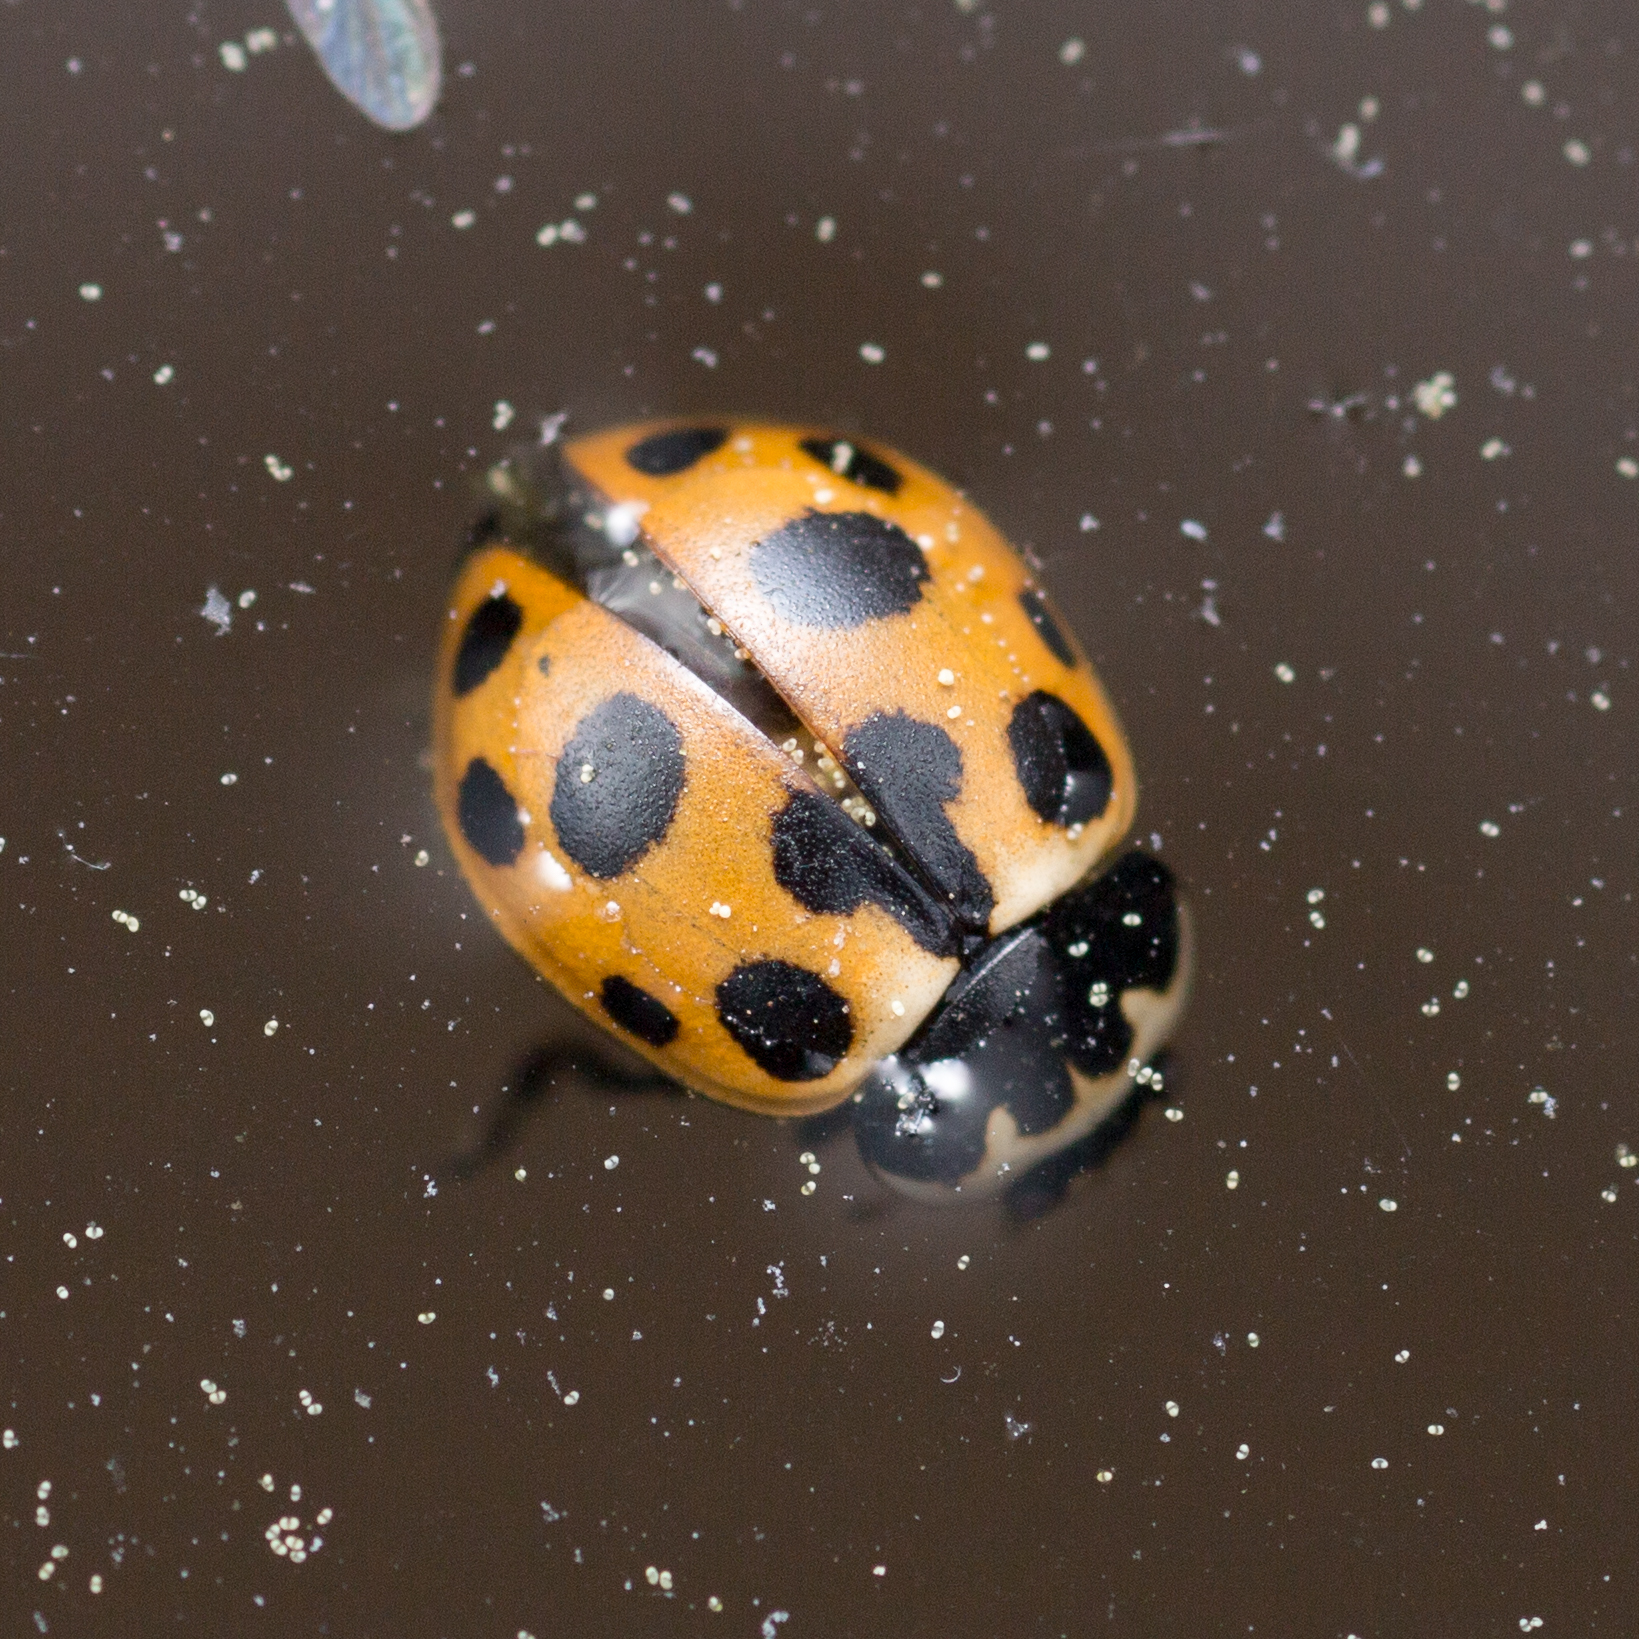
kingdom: Animalia
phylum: Arthropoda
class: Insecta
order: Coleoptera
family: Coccinellidae
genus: Ceratomegilla
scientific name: Ceratomegilla notata
